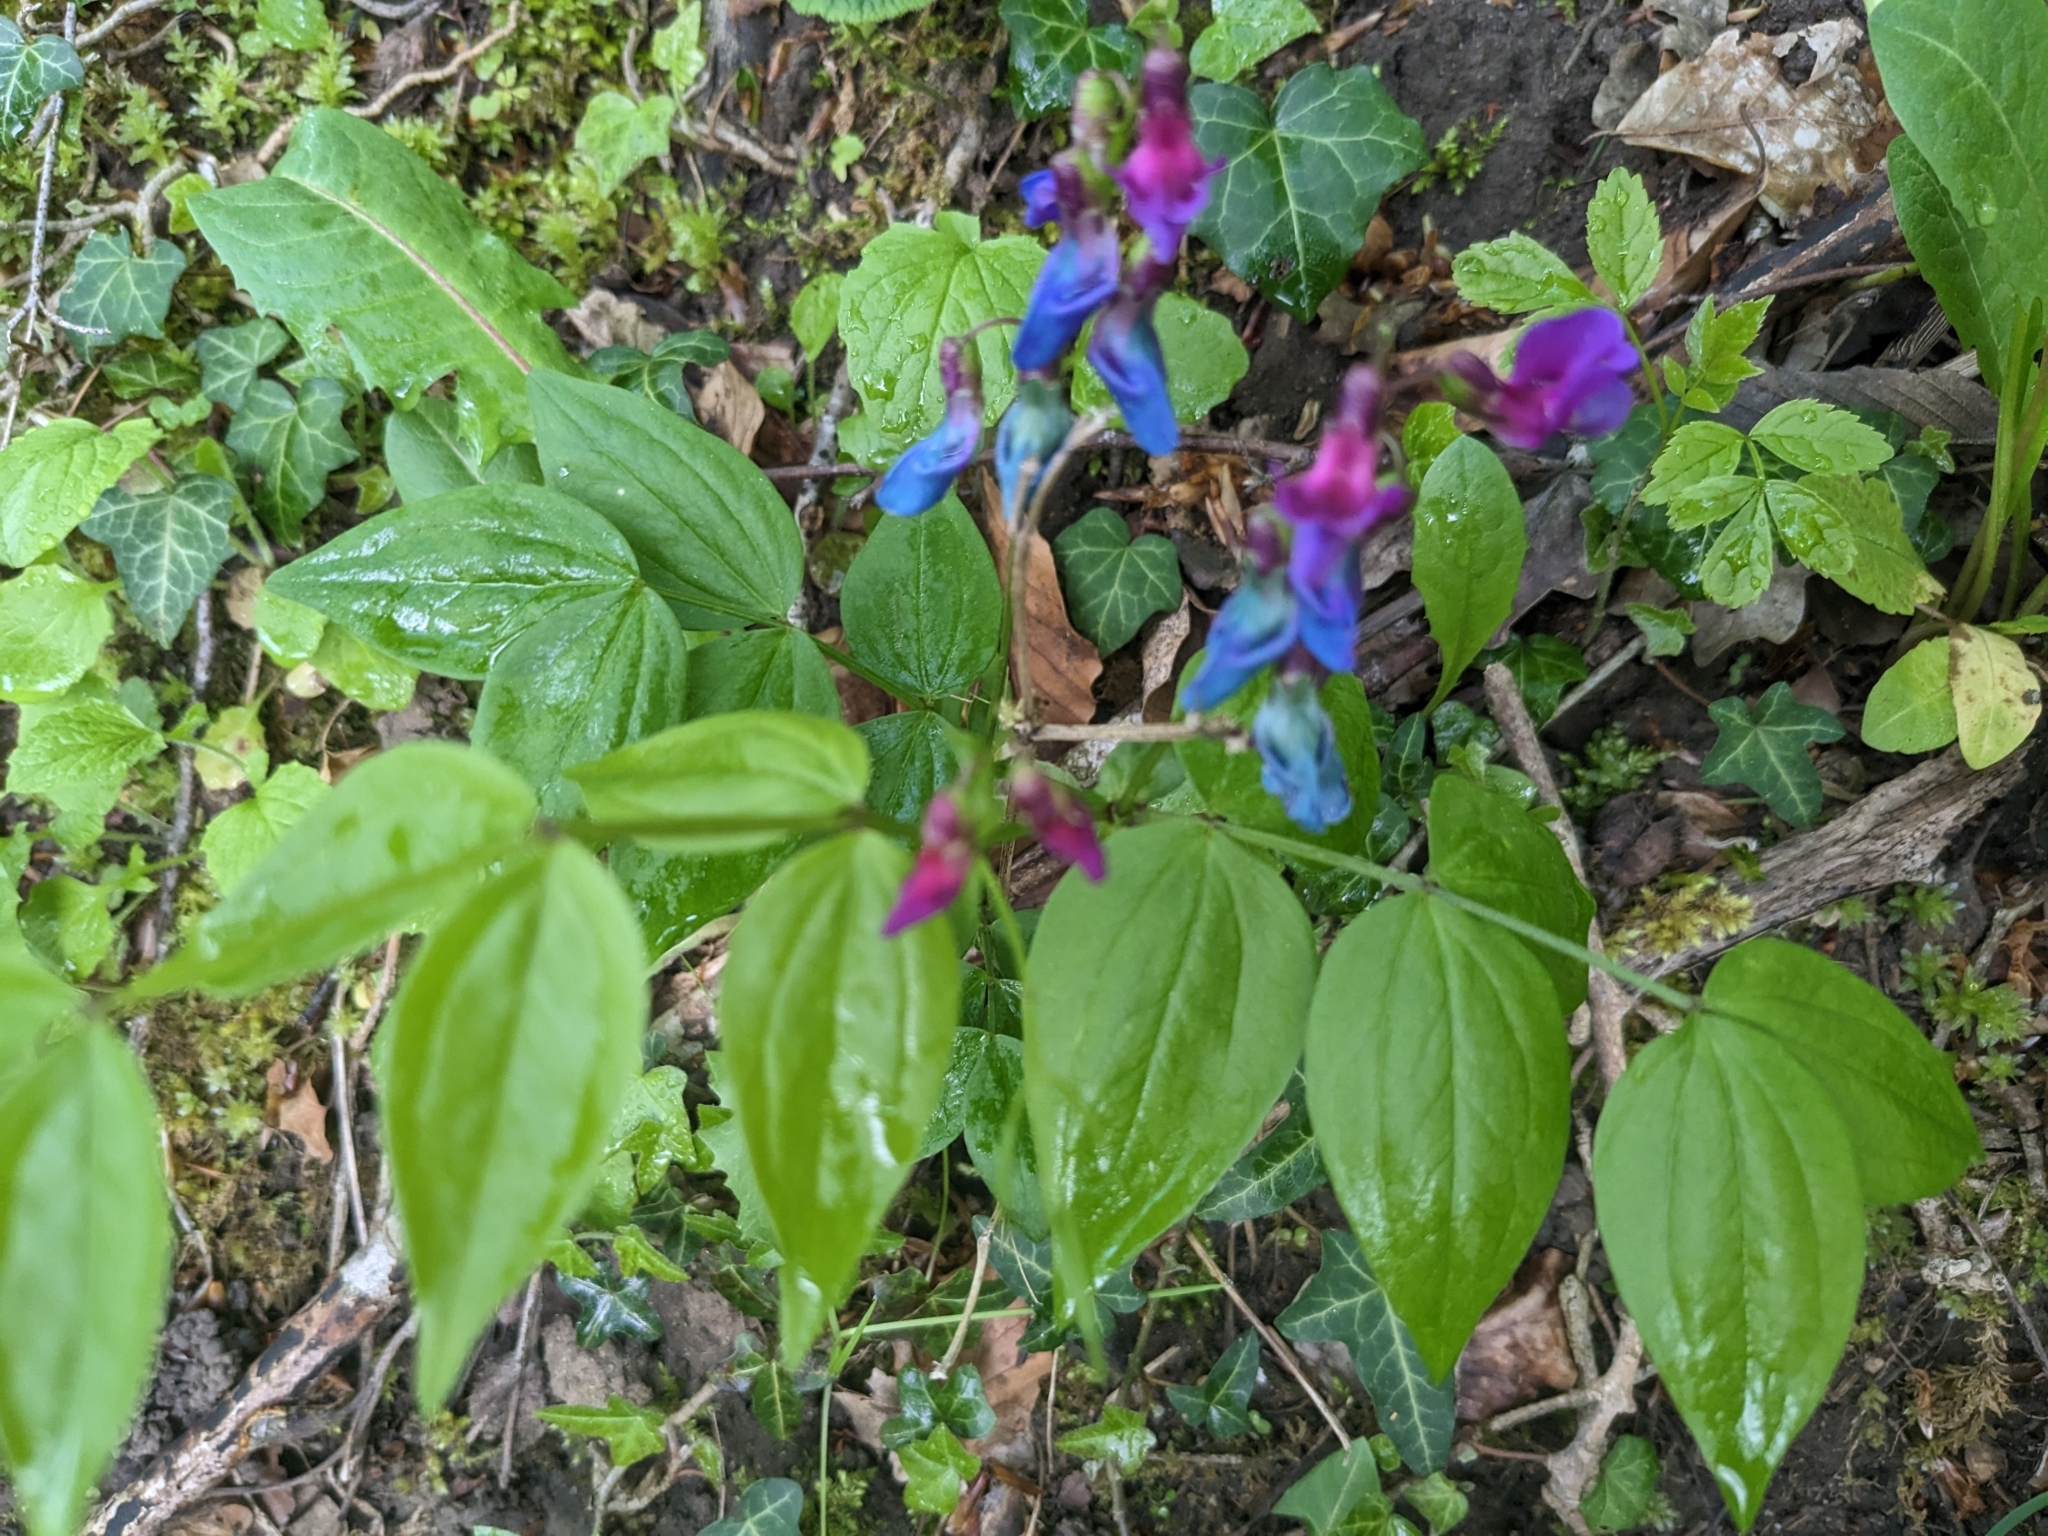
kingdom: Plantae
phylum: Tracheophyta
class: Magnoliopsida
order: Fabales
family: Fabaceae
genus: Lathyrus
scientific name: Lathyrus vernus
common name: Spring pea
